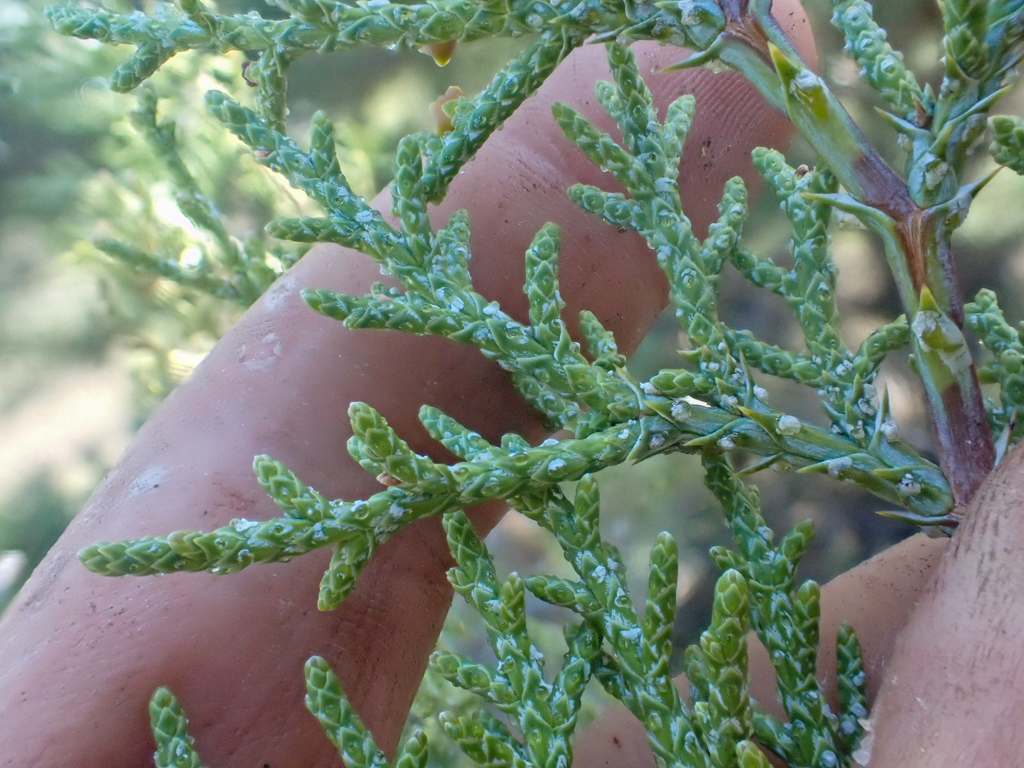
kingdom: Plantae
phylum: Tracheophyta
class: Pinopsida
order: Pinales
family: Cupressaceae
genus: Juniperus
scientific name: Juniperus occidentalis
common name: Western juniper
